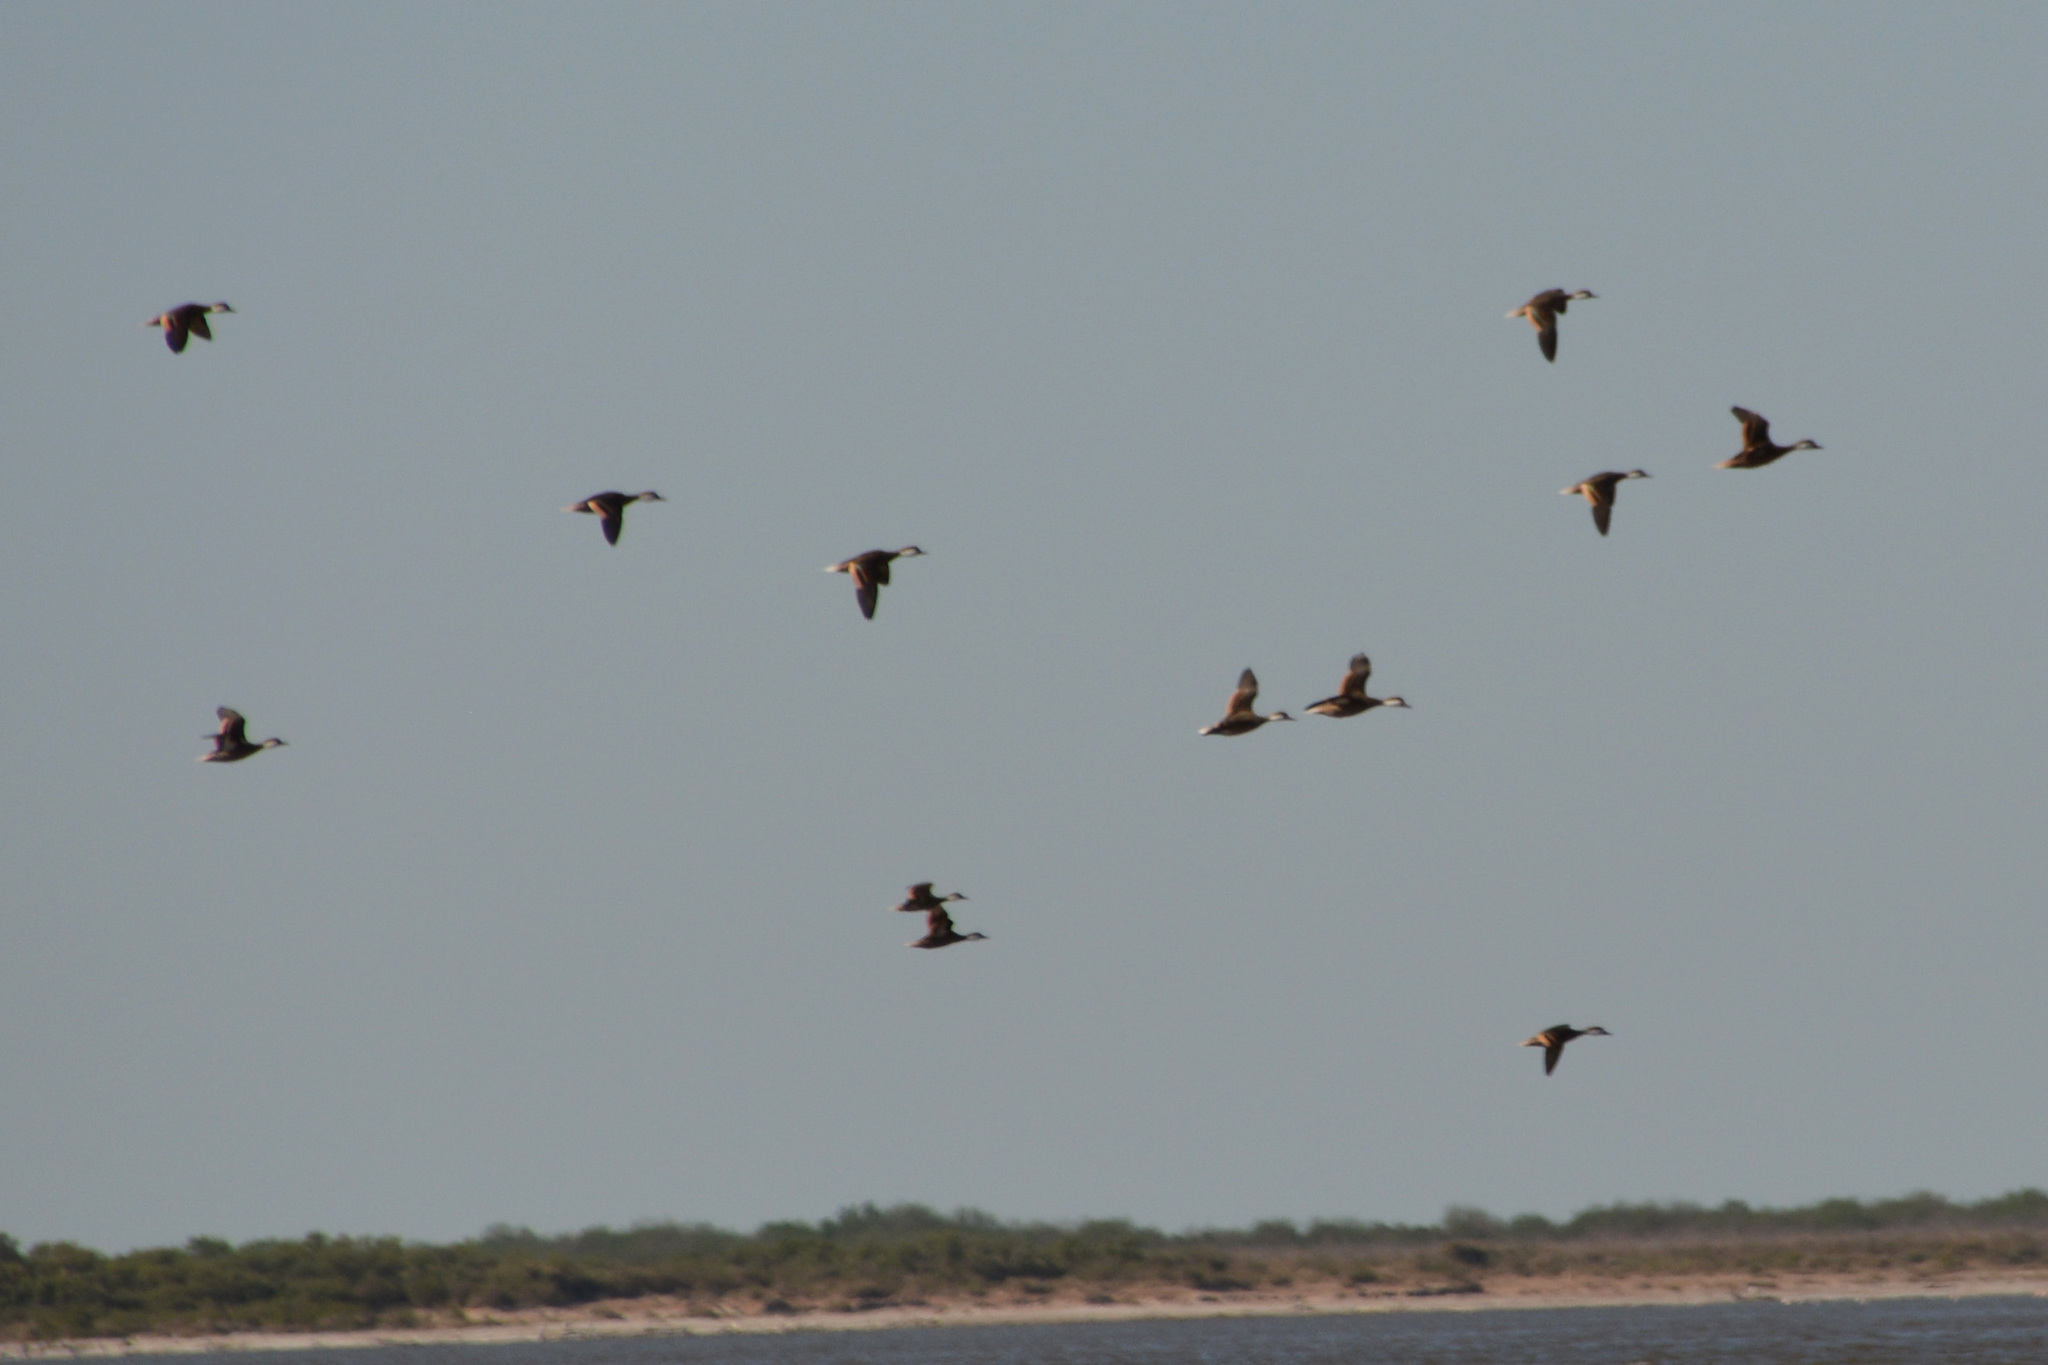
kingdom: Animalia
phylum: Chordata
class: Aves
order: Anseriformes
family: Anatidae
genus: Anas
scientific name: Anas bahamensis
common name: White-cheeked pintail
